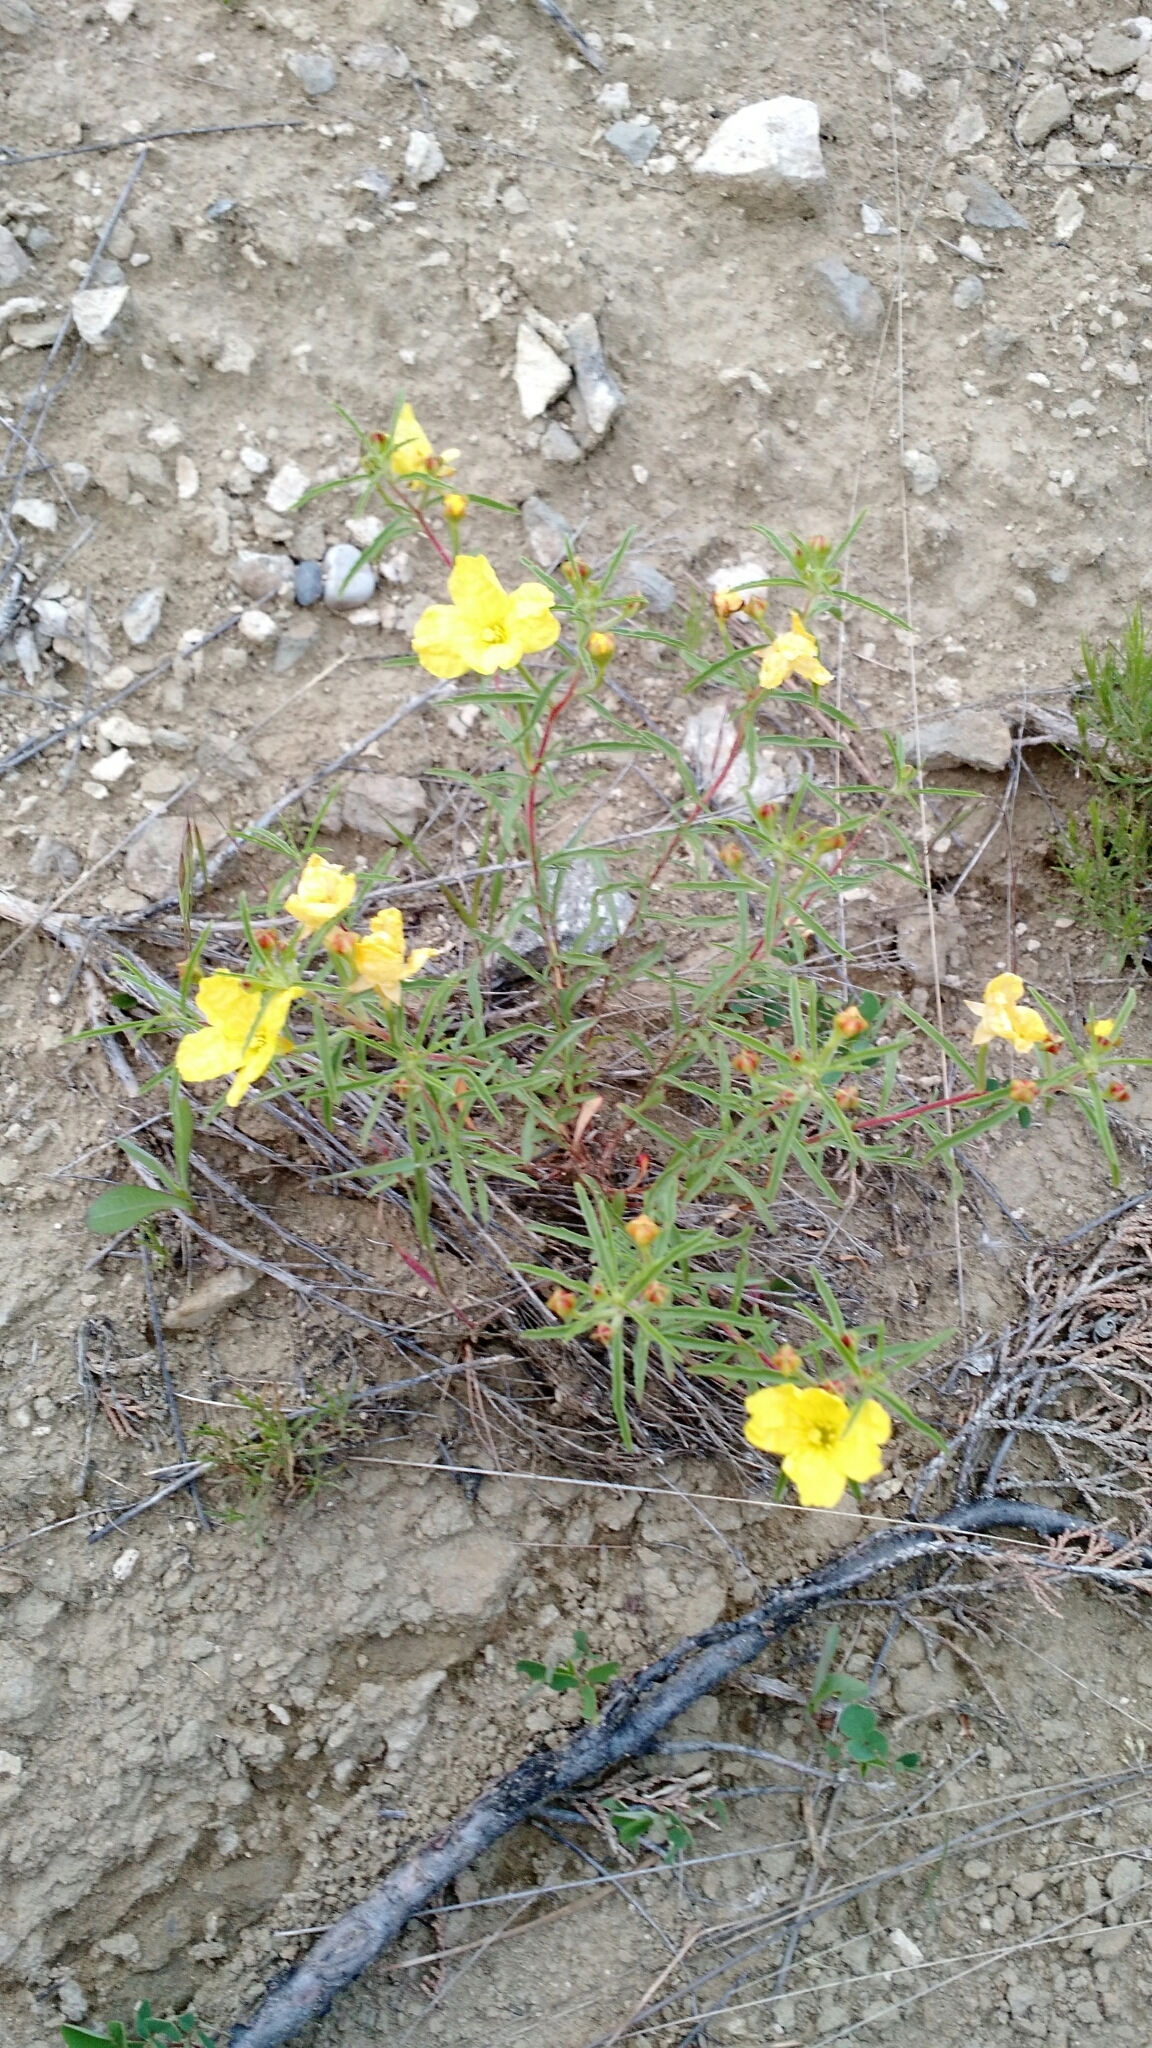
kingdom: Plantae
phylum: Tracheophyta
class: Magnoliopsida
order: Myrtales
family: Onagraceae
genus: Oenothera
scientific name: Oenothera serrulata
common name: Half-shrub calylophus
